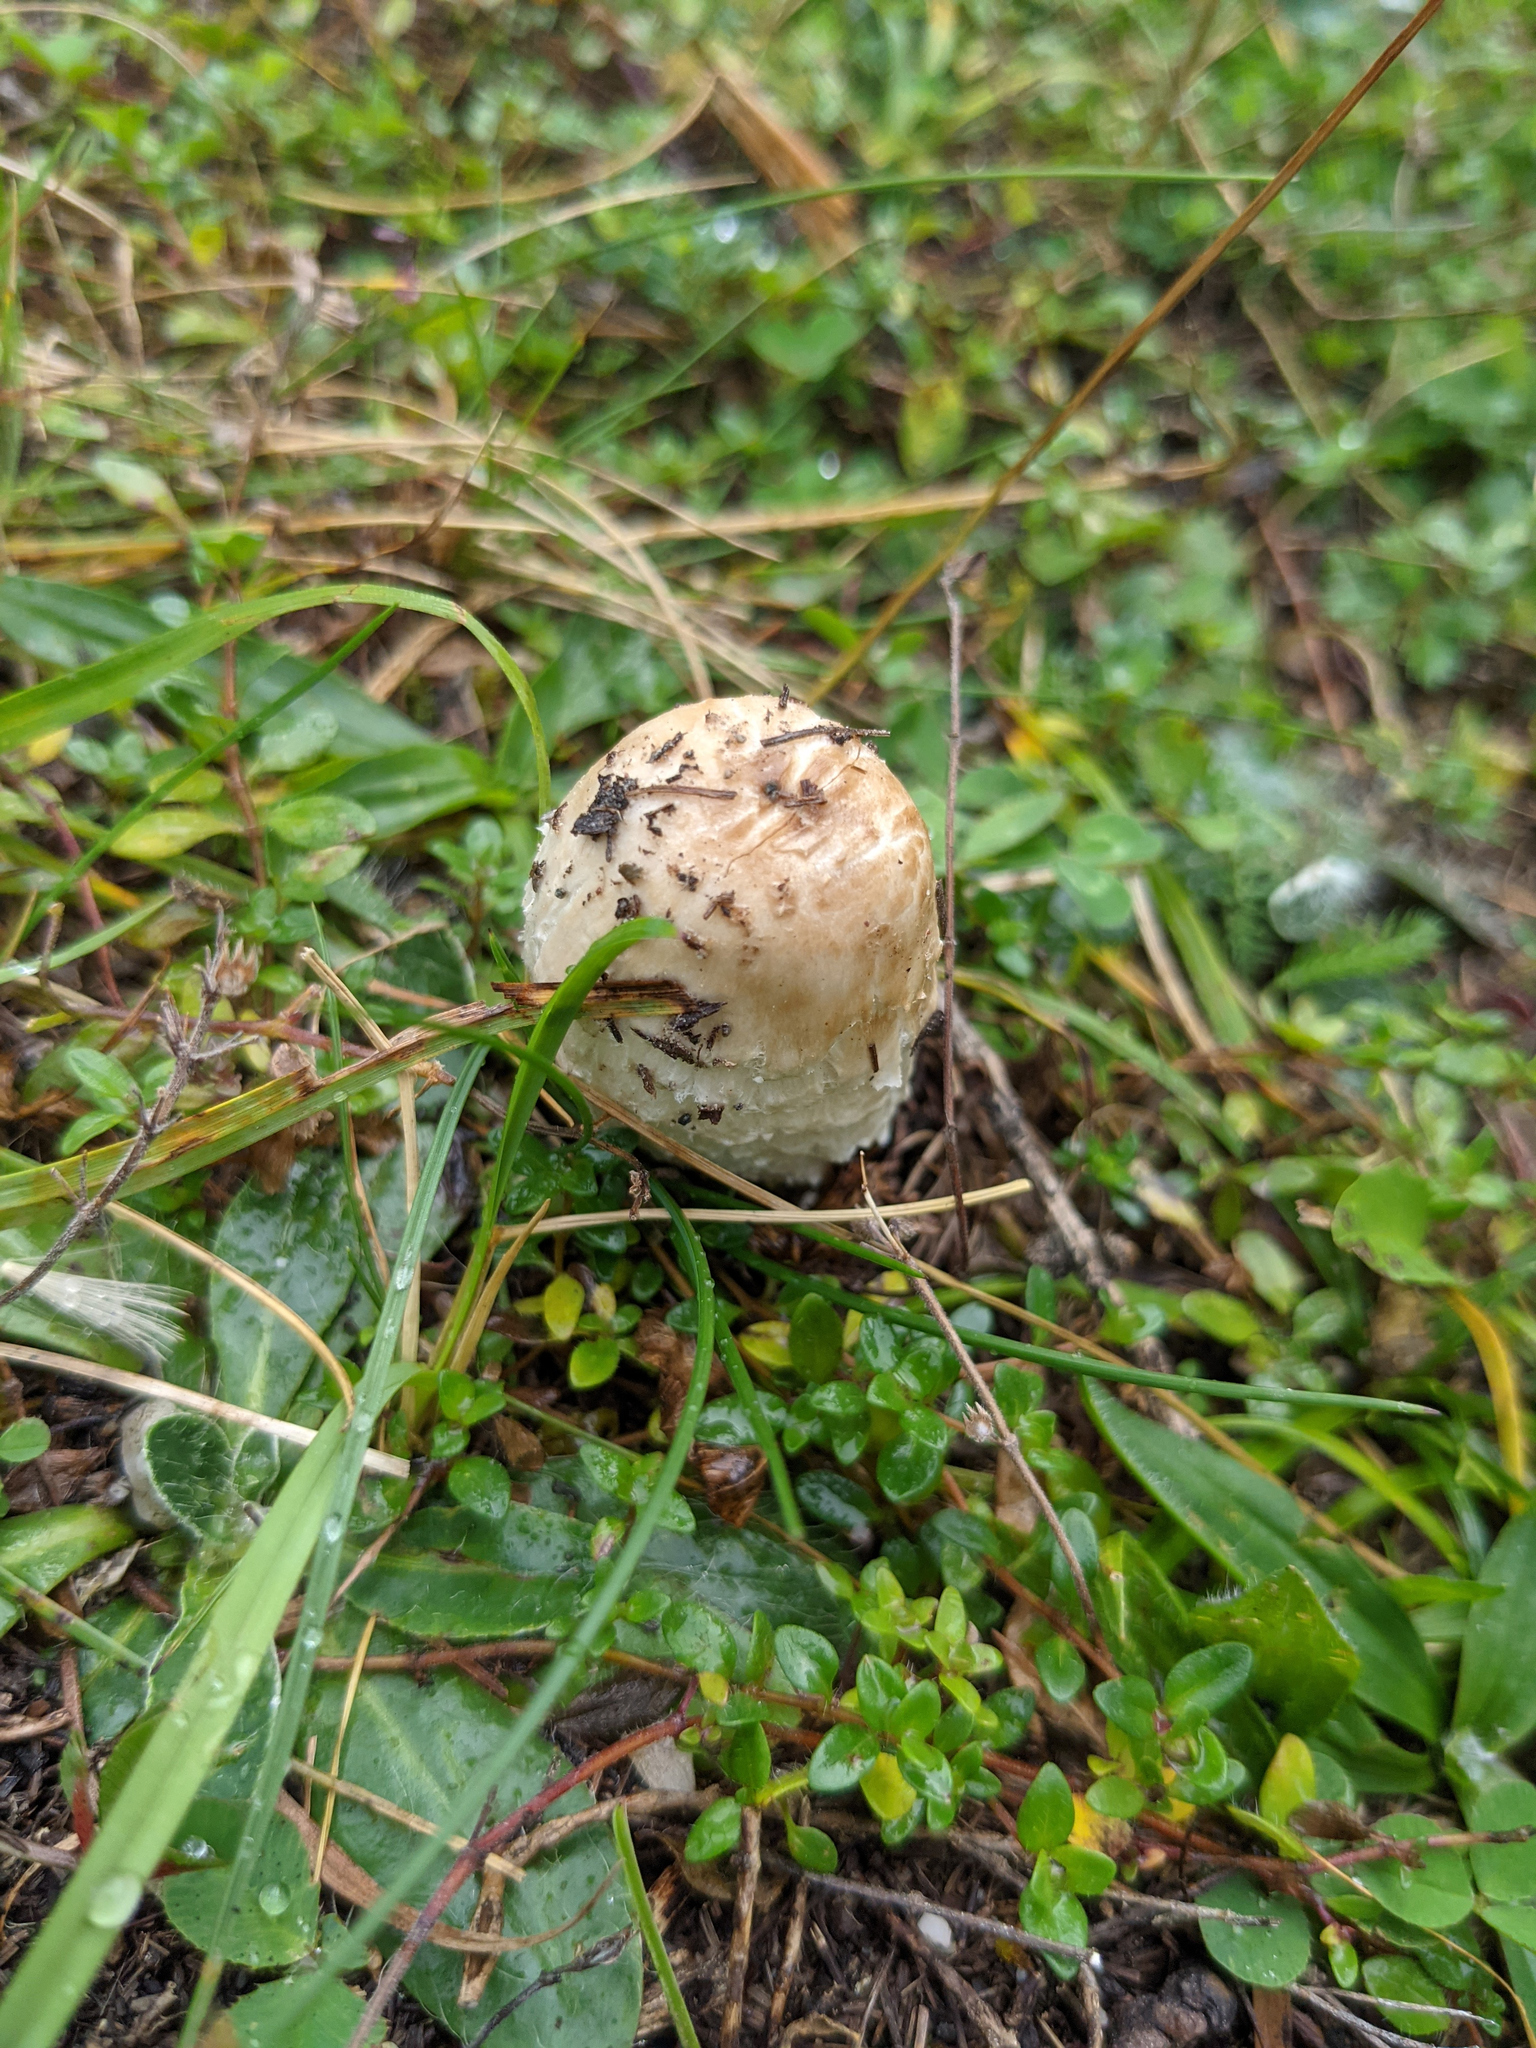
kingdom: Fungi
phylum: Basidiomycota
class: Agaricomycetes
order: Agaricales
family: Agaricaceae
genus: Coprinus
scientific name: Coprinus comatus
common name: Lawyer's wig
